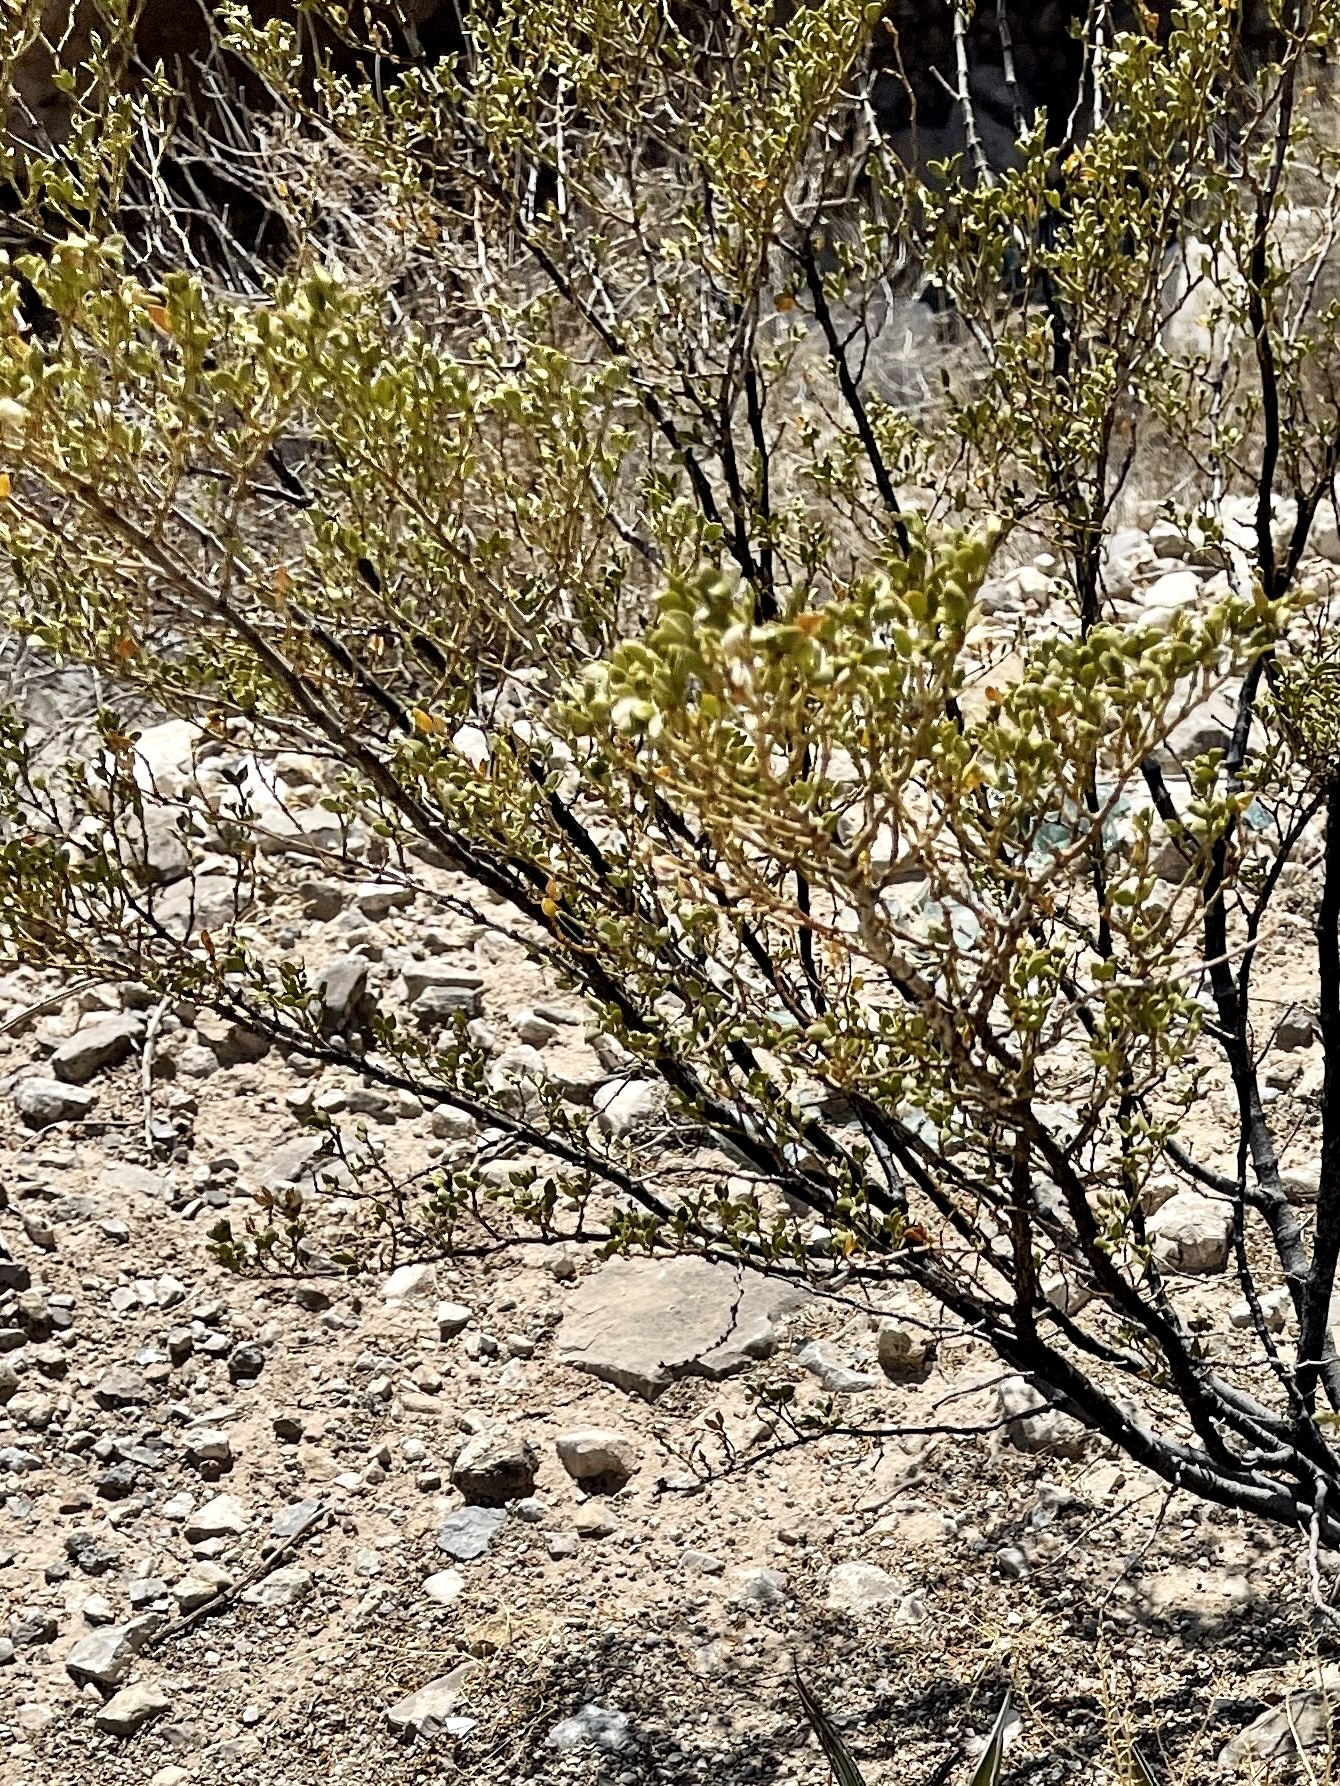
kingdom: Plantae
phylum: Tracheophyta
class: Magnoliopsida
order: Zygophyllales
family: Zygophyllaceae
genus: Larrea
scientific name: Larrea tridentata
